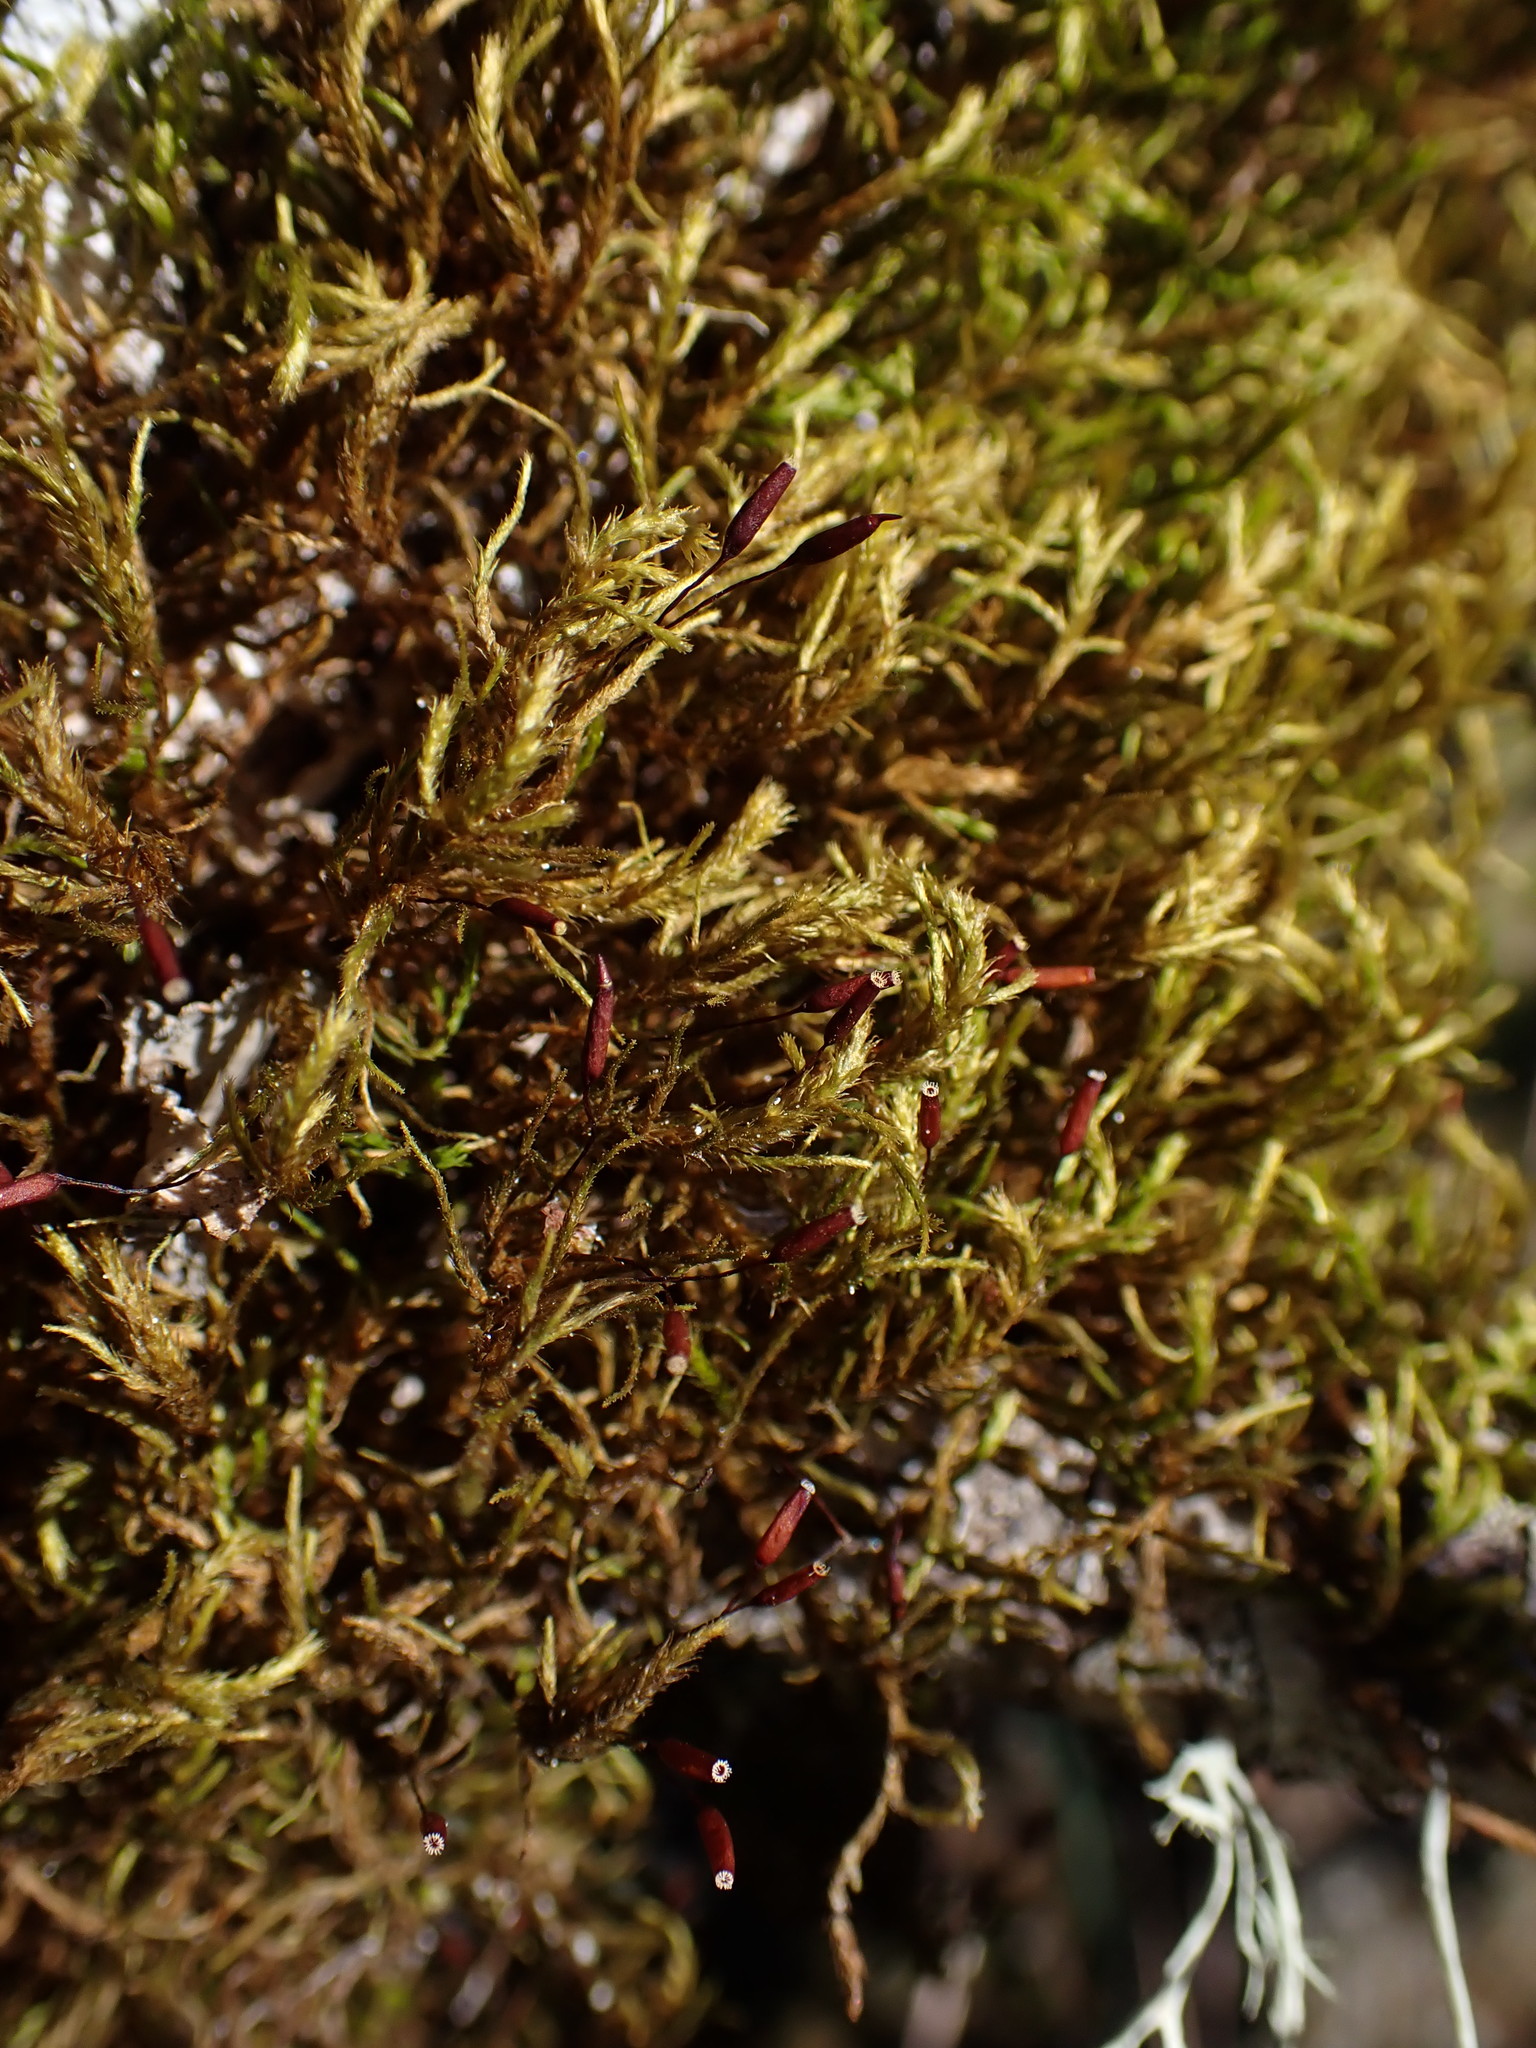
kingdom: Plantae
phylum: Bryophyta
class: Bryopsida
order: Hypnales
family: Antitrichiaceae
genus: Antitrichia
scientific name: Antitrichia californica
